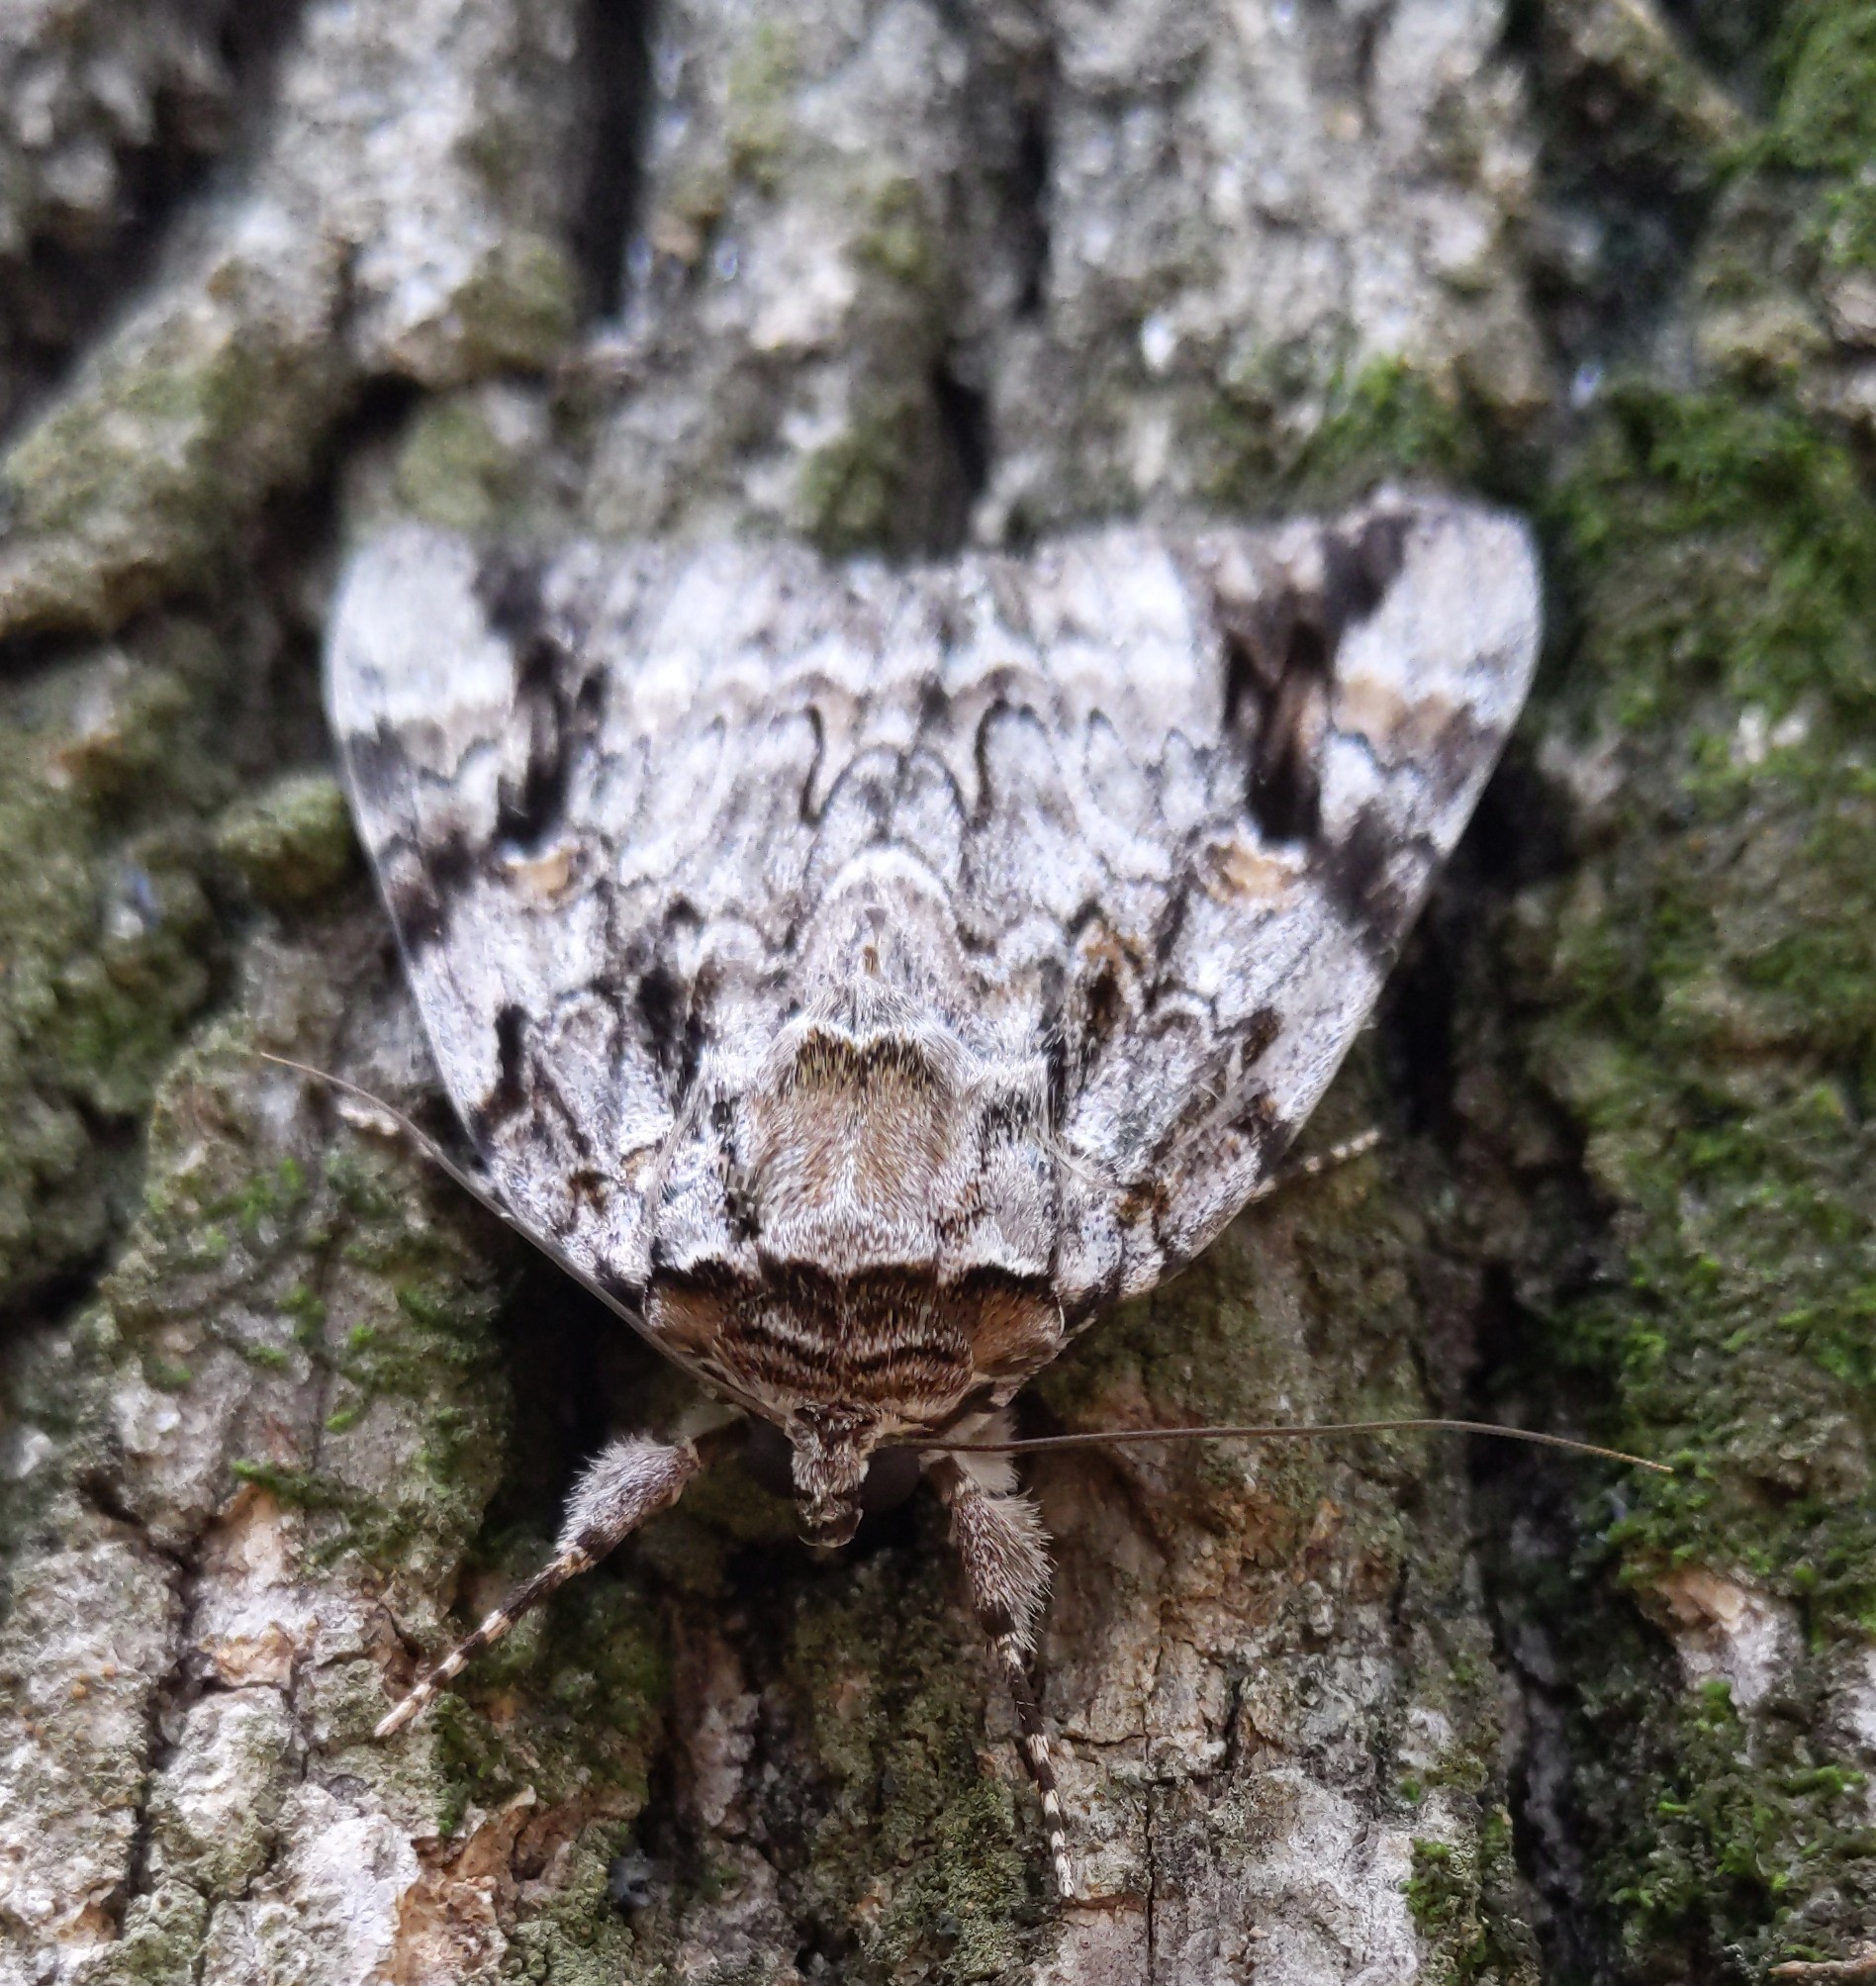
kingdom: Animalia
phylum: Arthropoda
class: Insecta
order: Lepidoptera
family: Erebidae
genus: Catocala
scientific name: Catocala maestosa
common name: Sad underwing
